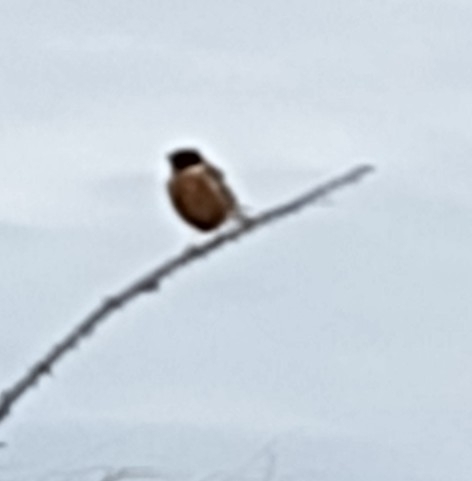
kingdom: Animalia
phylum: Chordata
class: Aves
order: Passeriformes
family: Muscicapidae
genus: Saxicola
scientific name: Saxicola rubicola
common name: European stonechat
